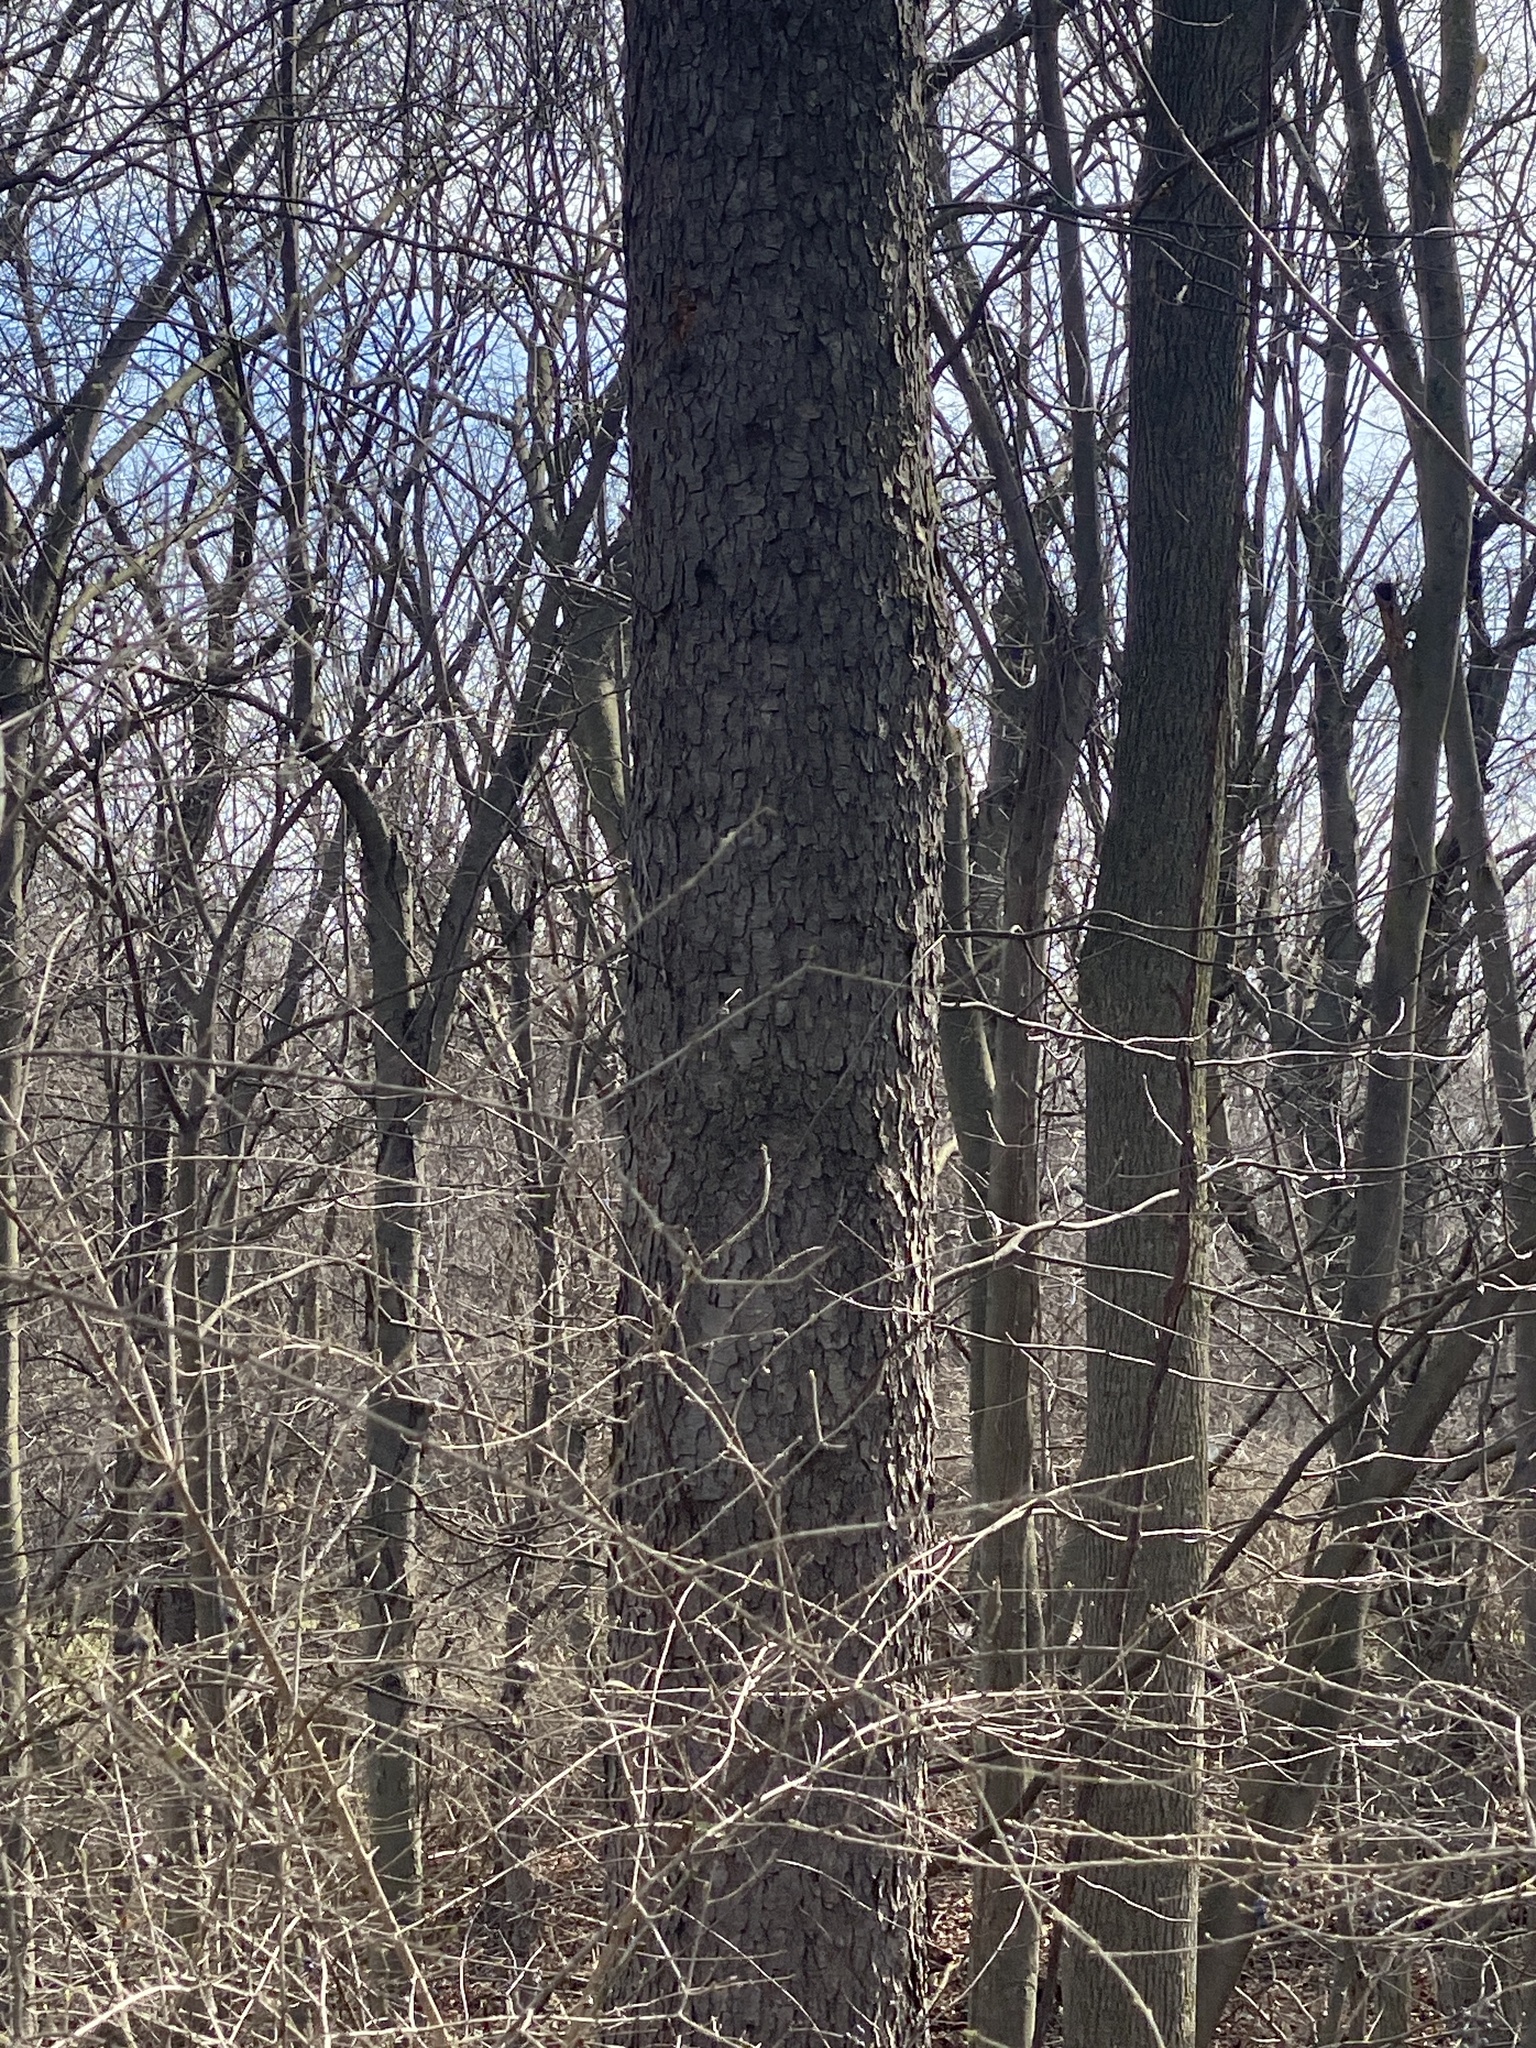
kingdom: Plantae
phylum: Tracheophyta
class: Magnoliopsida
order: Rosales
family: Rosaceae
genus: Prunus
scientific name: Prunus serotina
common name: Black cherry
